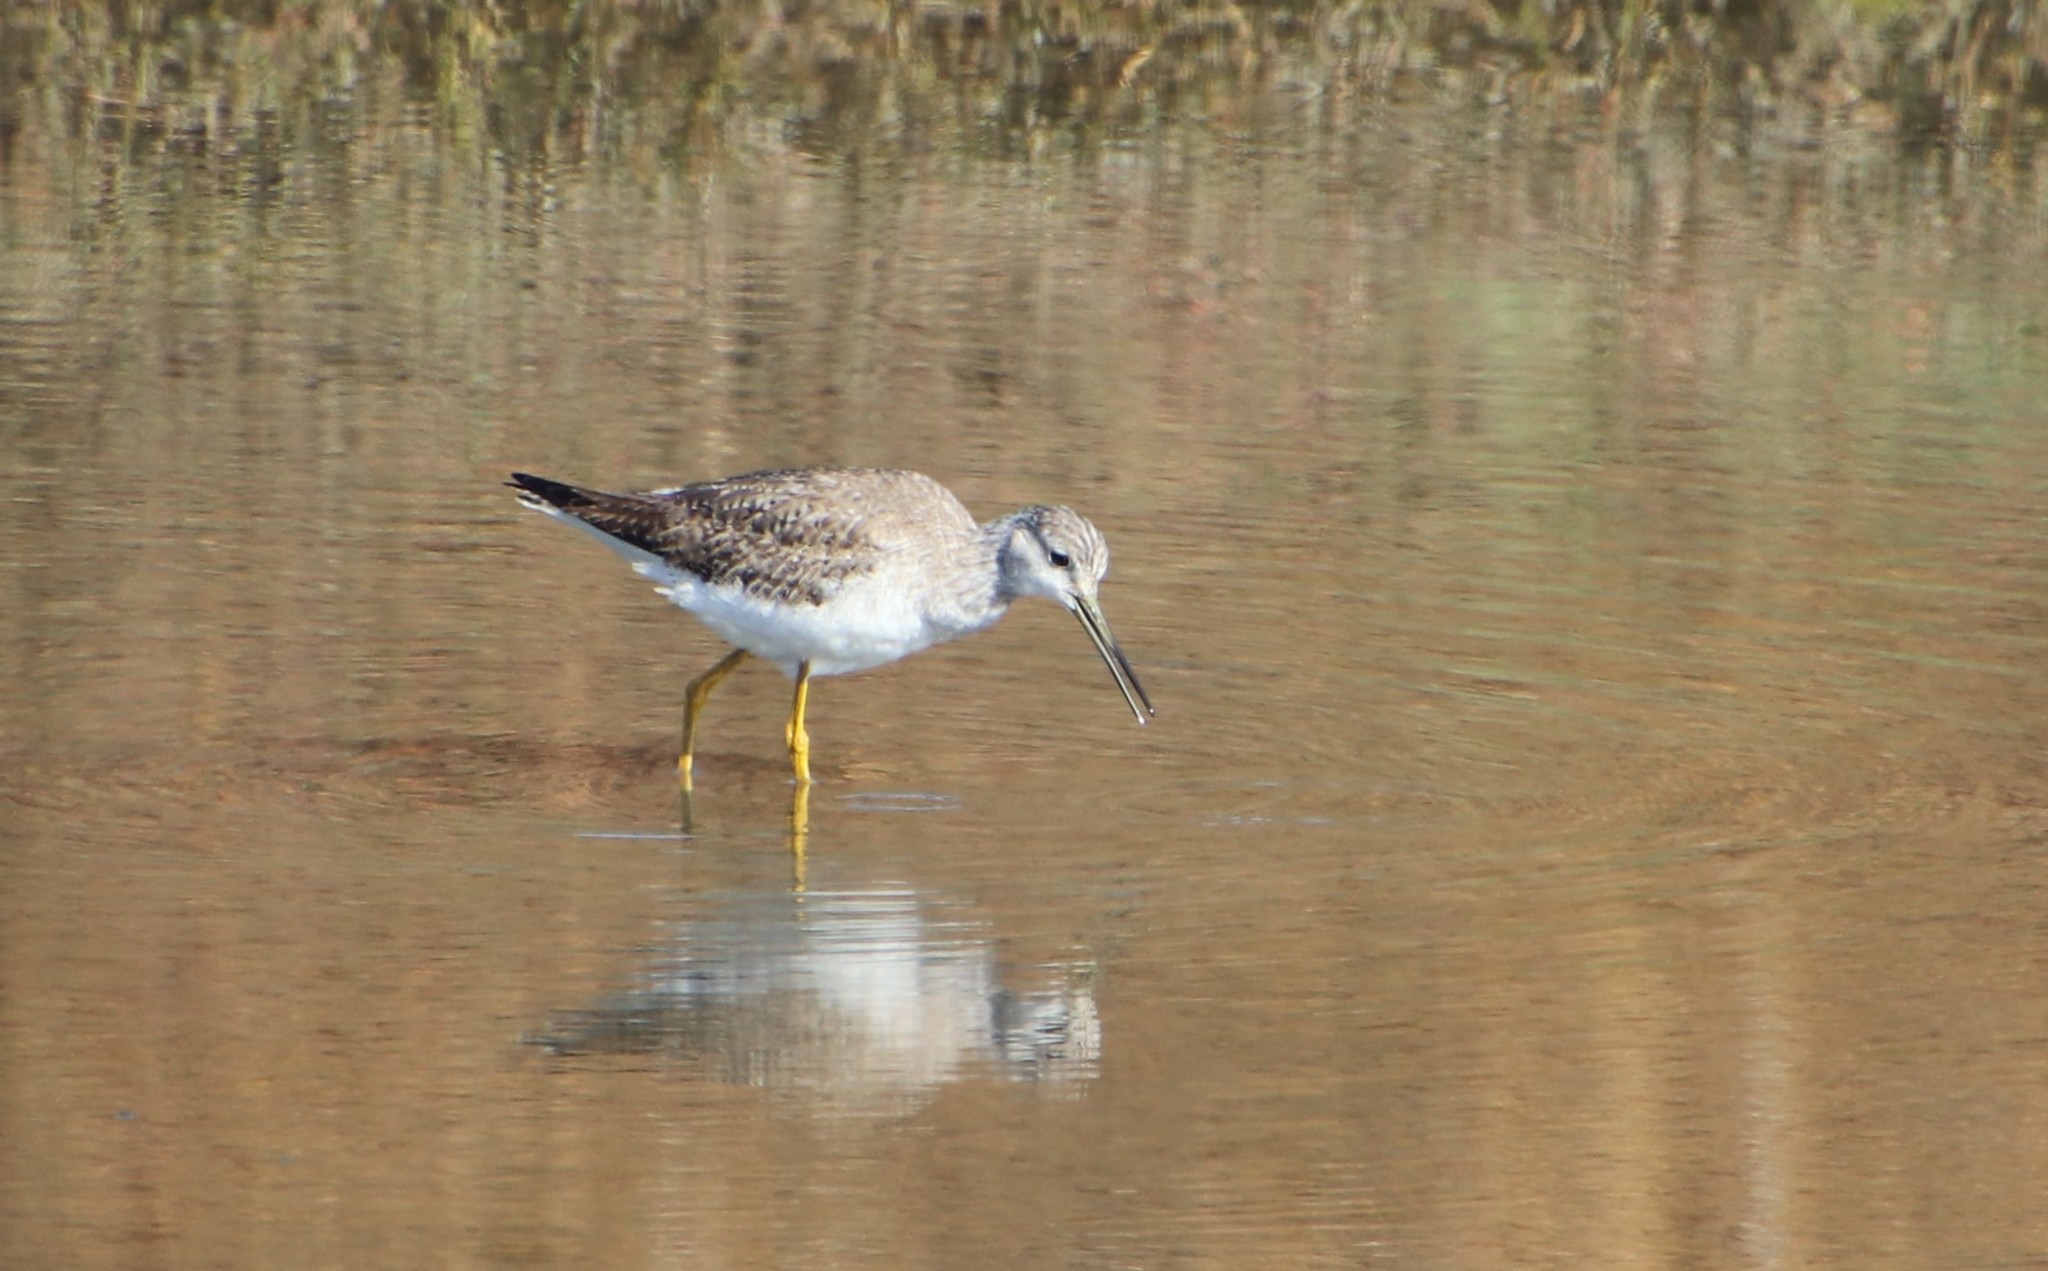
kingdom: Animalia
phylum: Chordata
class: Aves
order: Charadriiformes
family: Scolopacidae
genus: Tringa
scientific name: Tringa melanoleuca
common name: Greater yellowlegs
